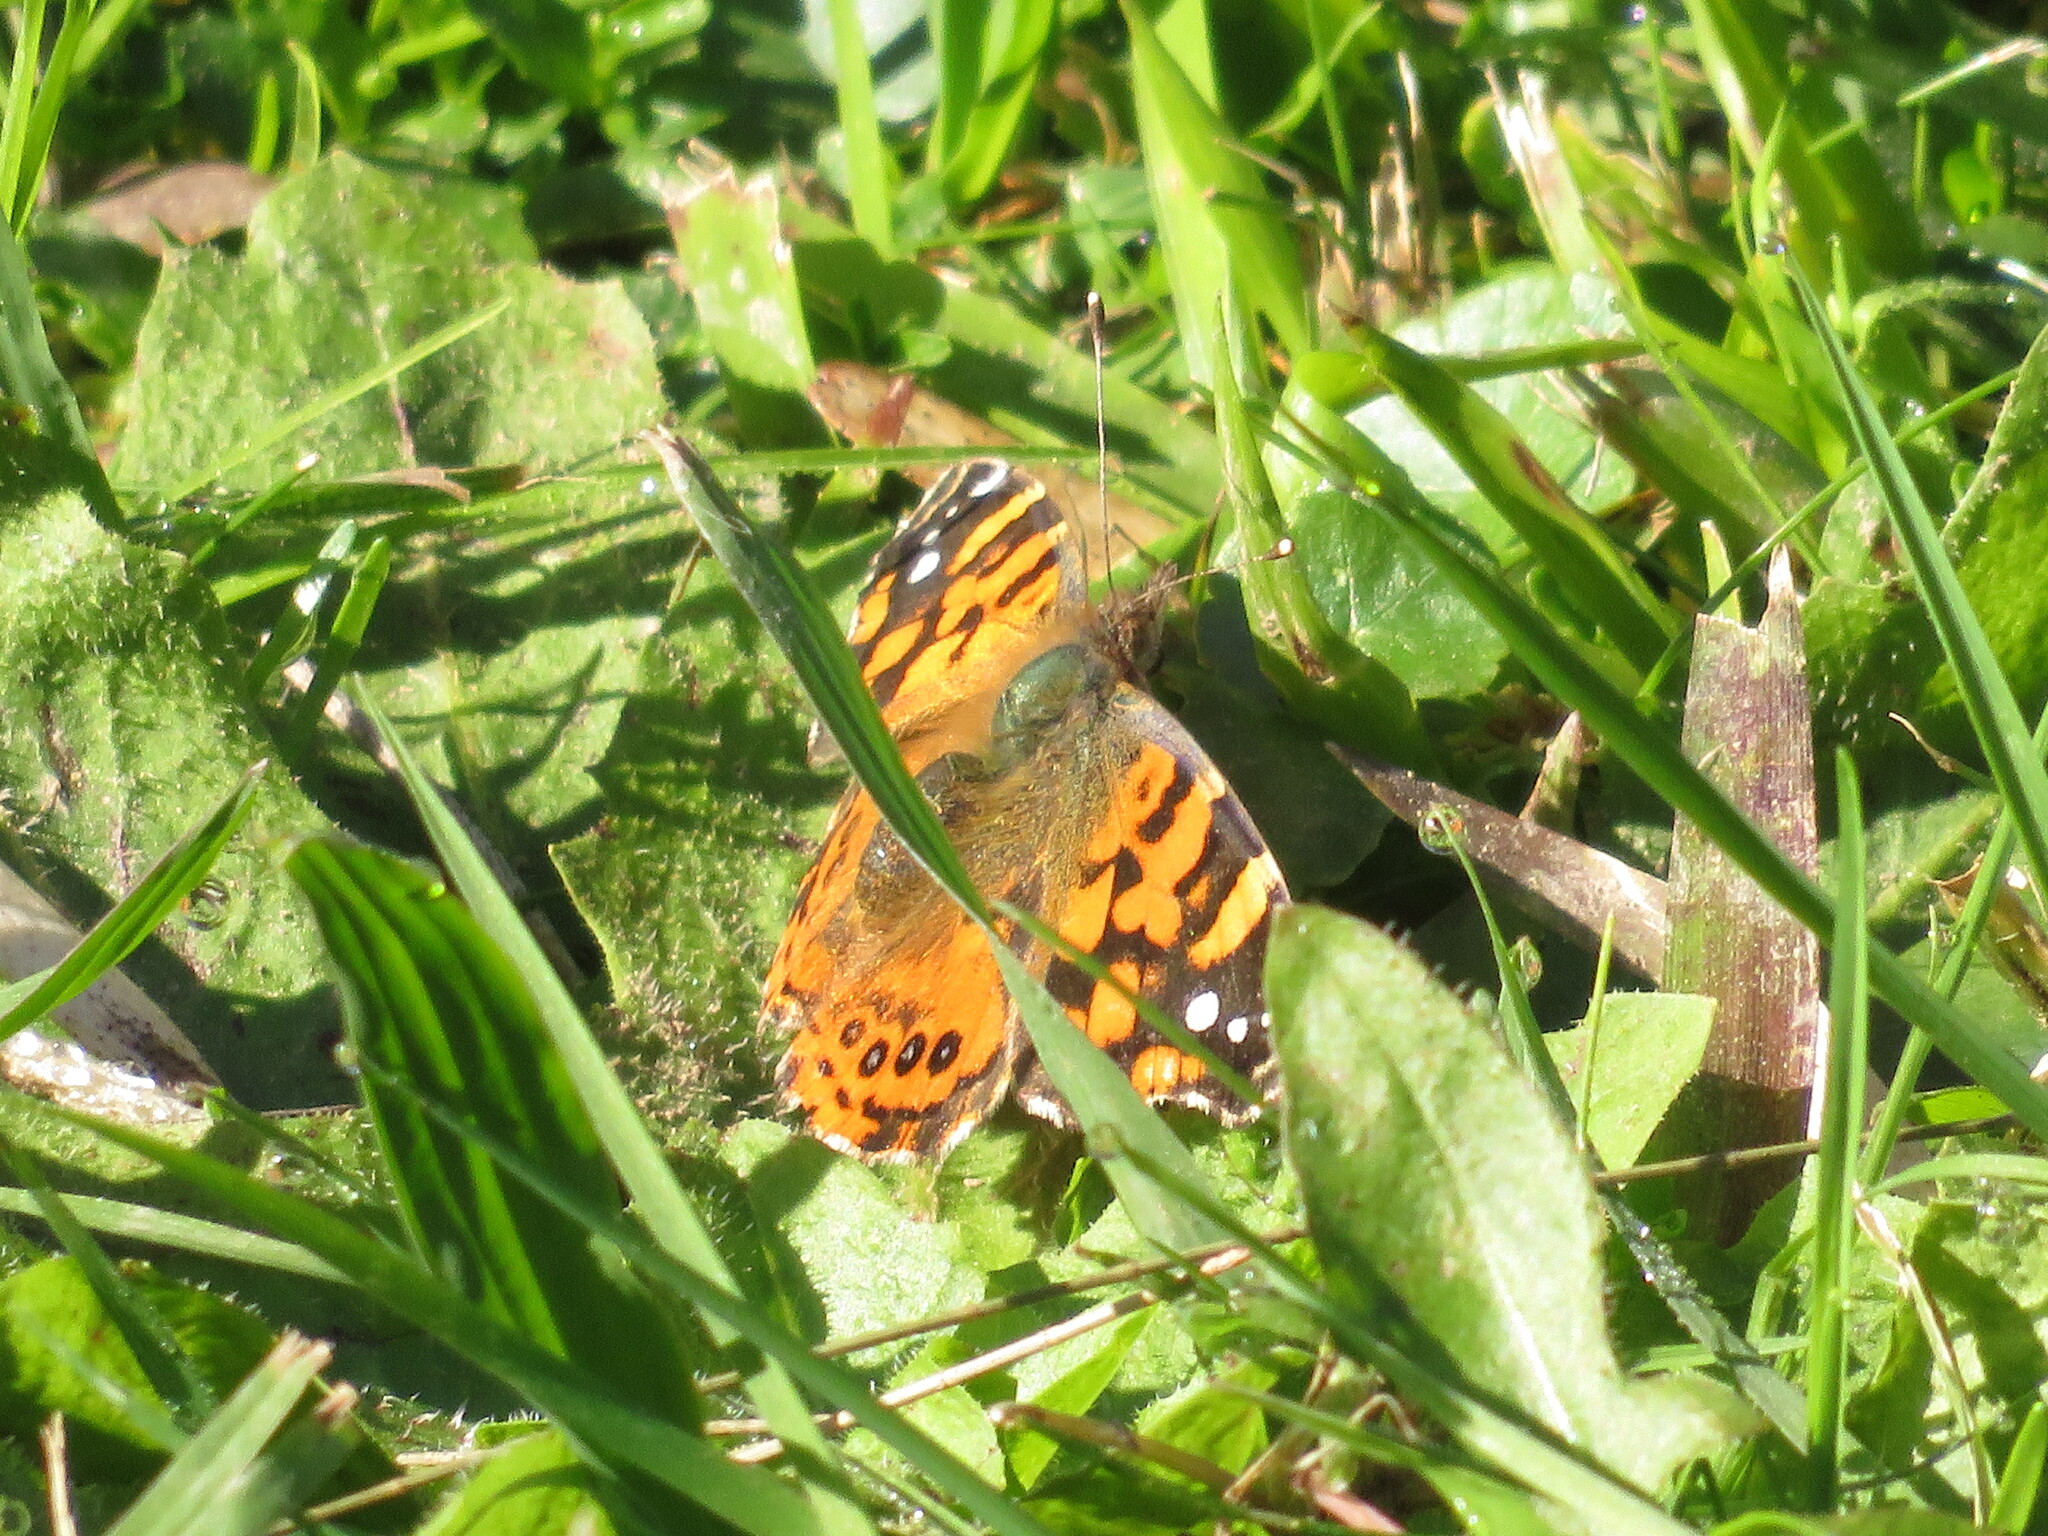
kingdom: Animalia
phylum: Arthropoda
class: Insecta
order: Lepidoptera
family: Nymphalidae
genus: Vanessa
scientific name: Vanessa carye
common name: Subtropical lady
